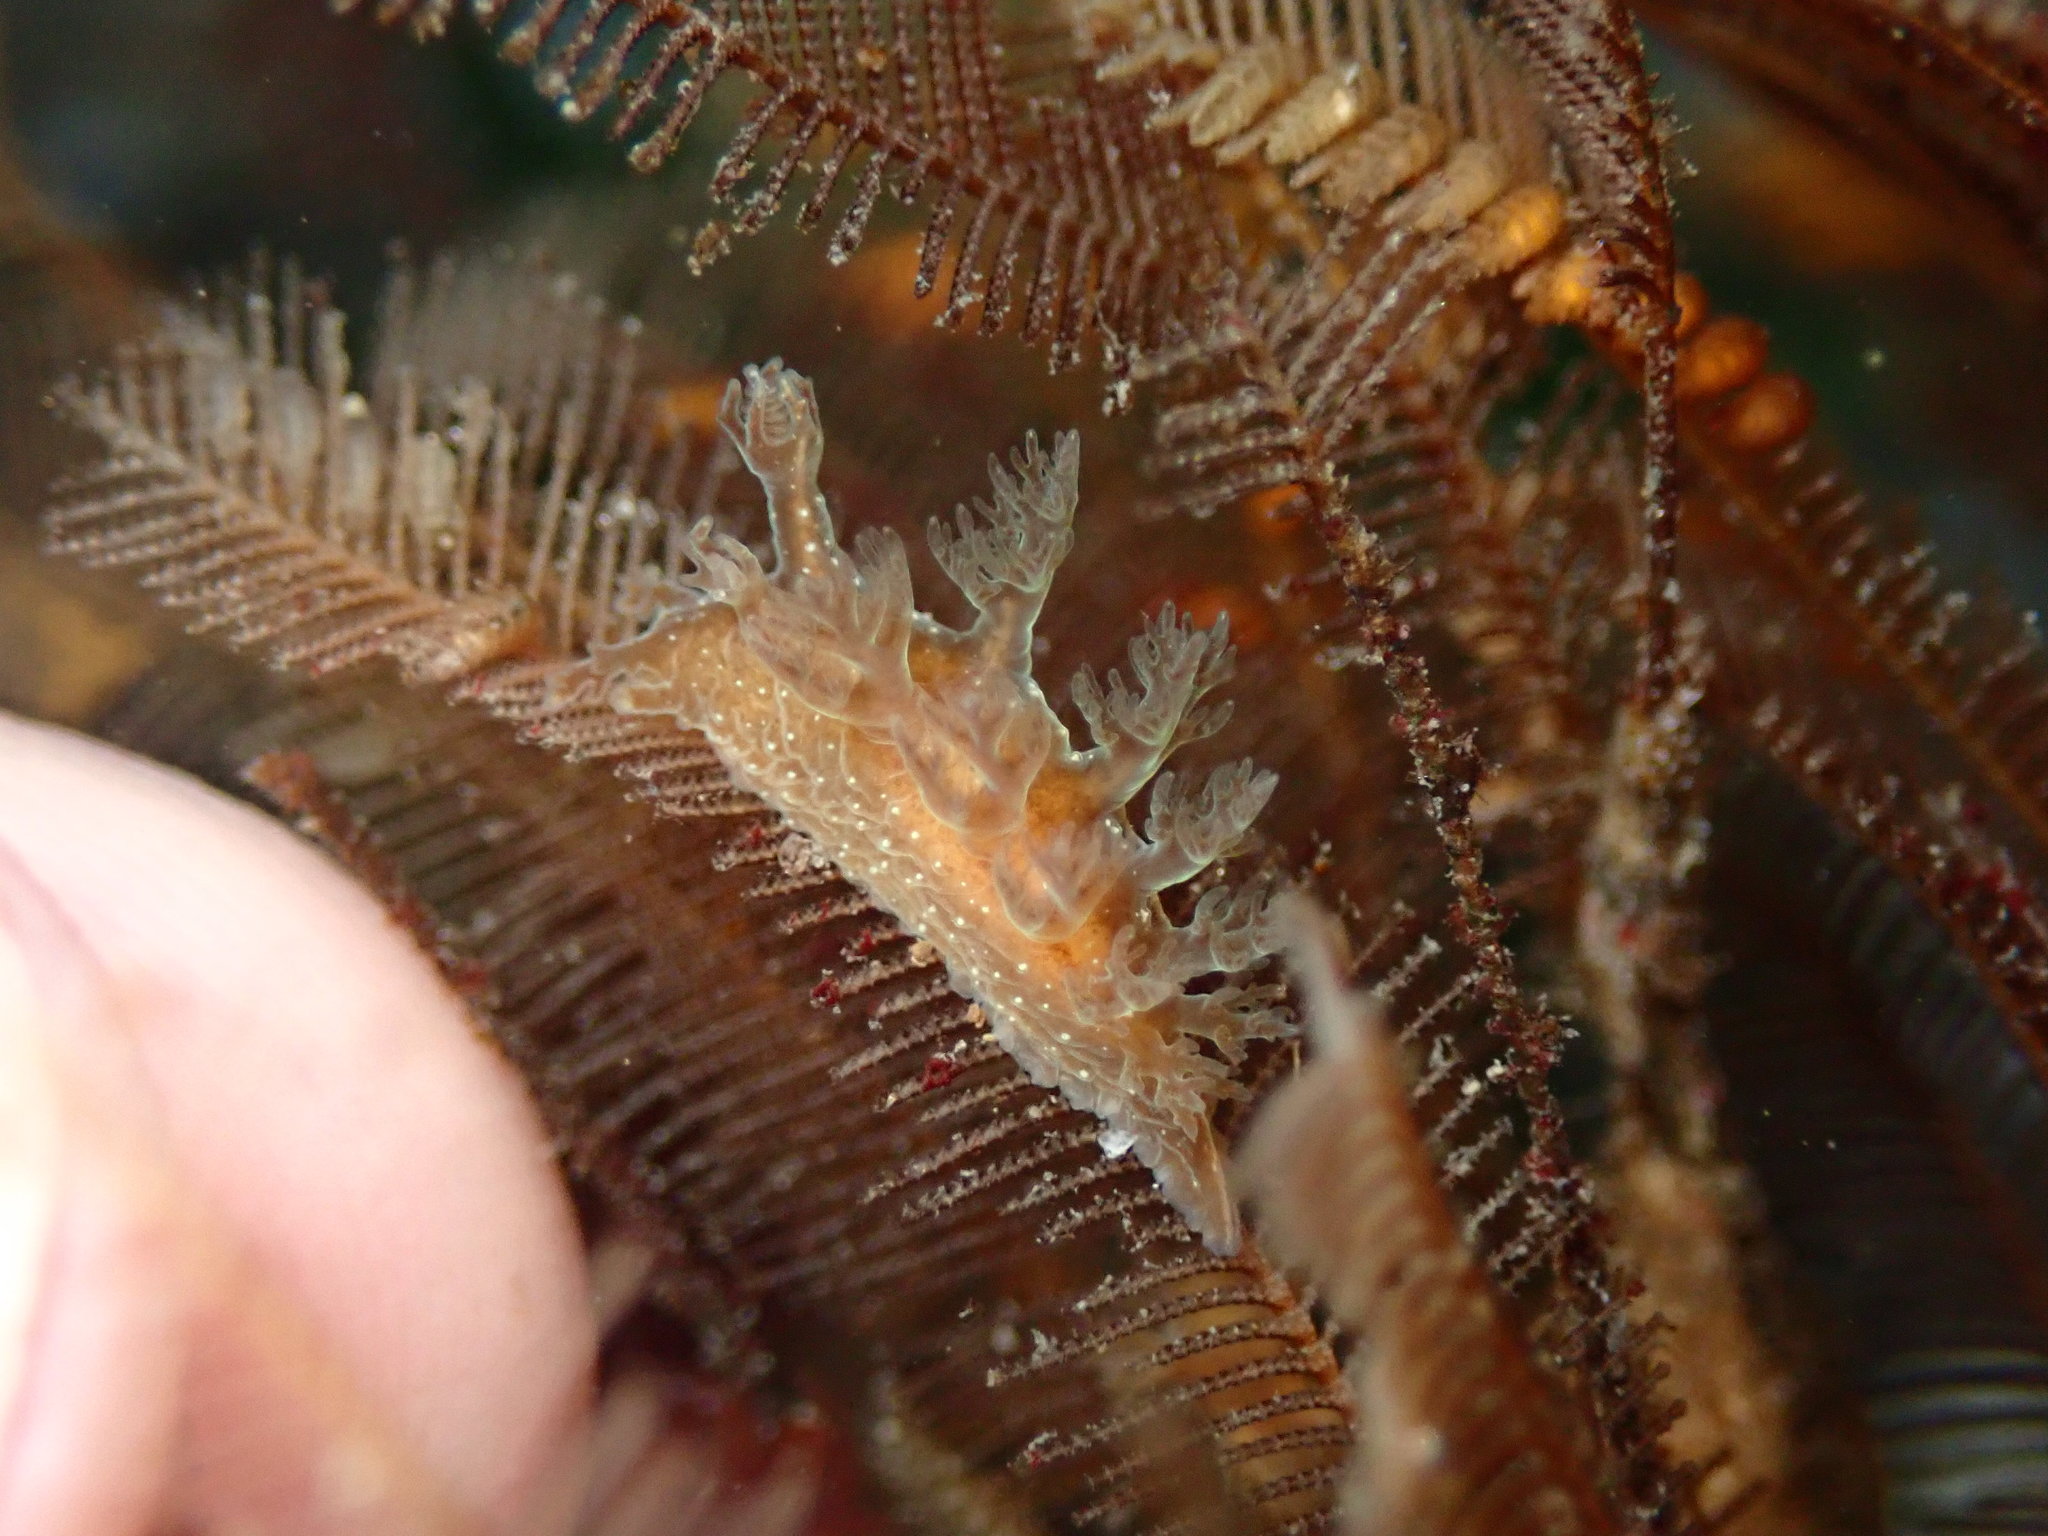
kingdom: Animalia
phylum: Mollusca
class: Gastropoda
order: Nudibranchia
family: Dendronotidae
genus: Dendronotus
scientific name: Dendronotus subramosus
